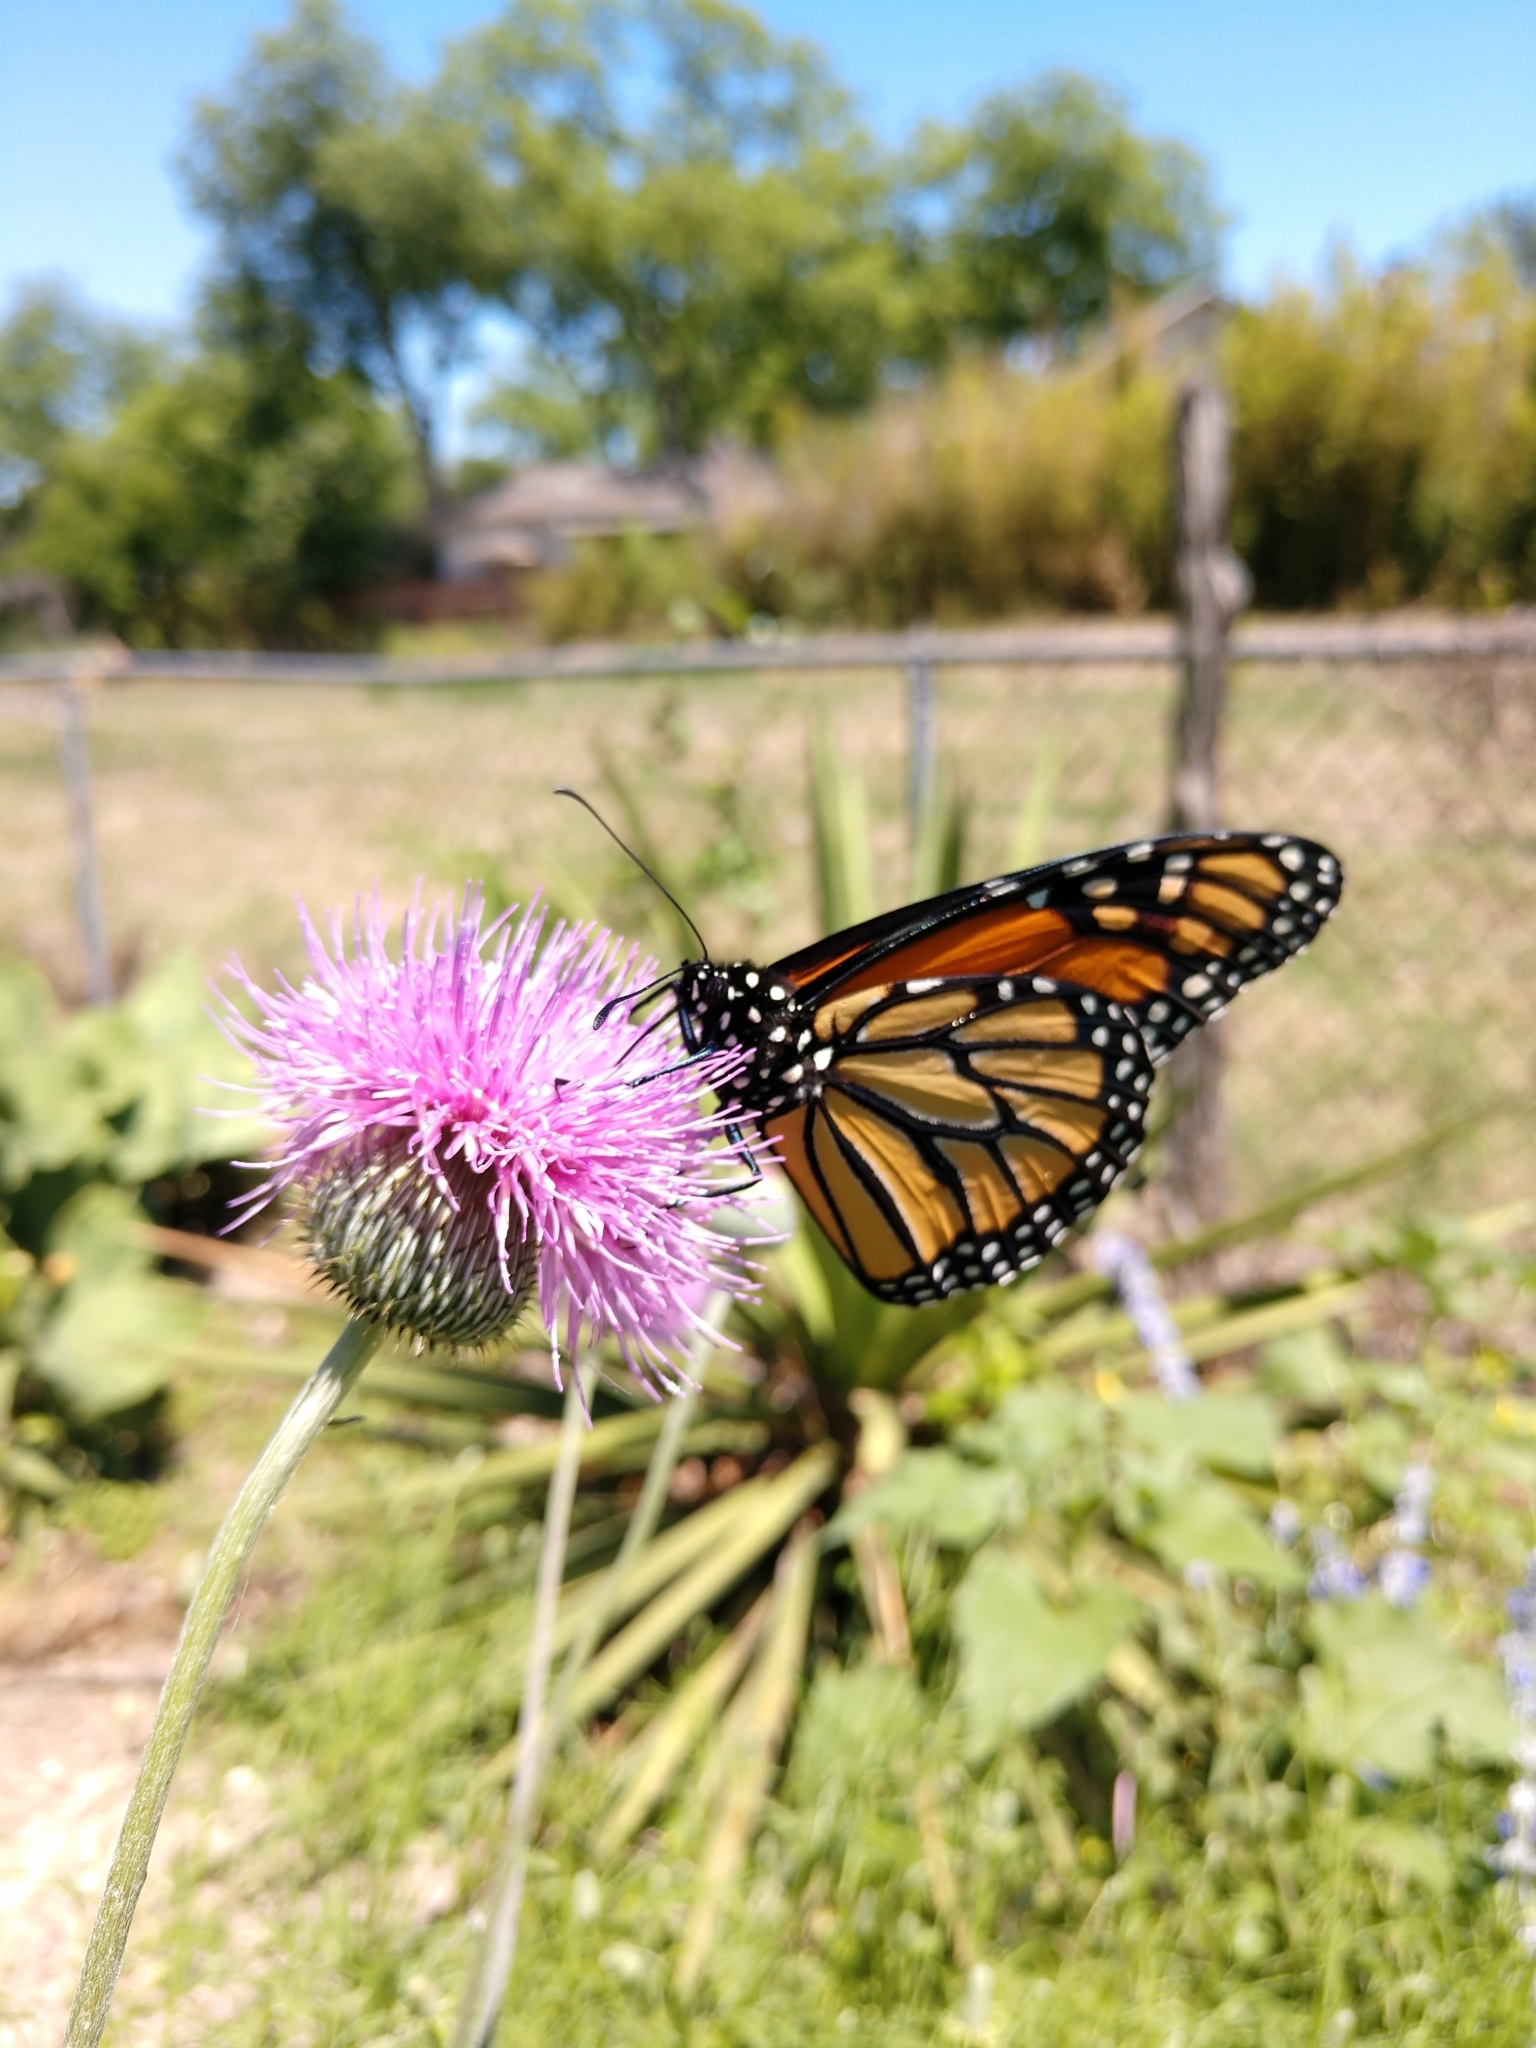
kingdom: Animalia
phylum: Arthropoda
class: Insecta
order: Lepidoptera
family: Nymphalidae
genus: Danaus
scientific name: Danaus plexippus
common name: Monarch
